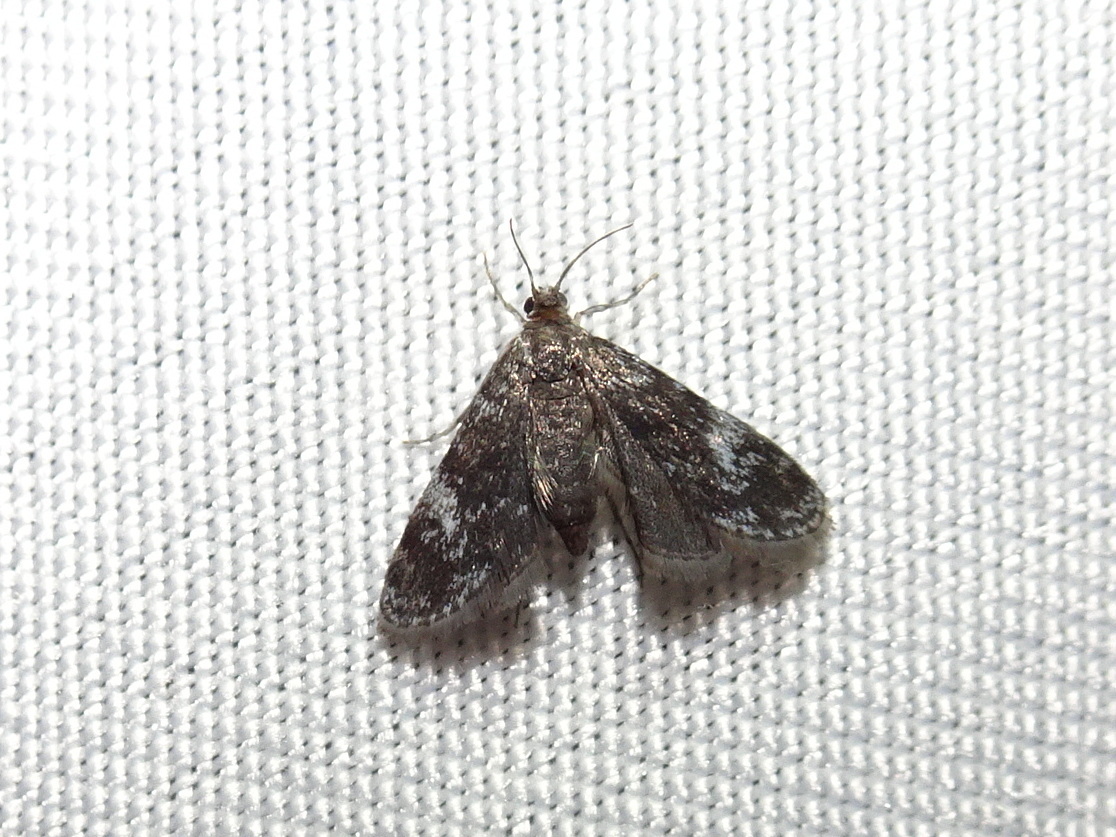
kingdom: Animalia
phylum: Arthropoda
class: Insecta
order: Lepidoptera
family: Crambidae
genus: Elophila
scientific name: Elophila tinealis
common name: Black duckweed moth
